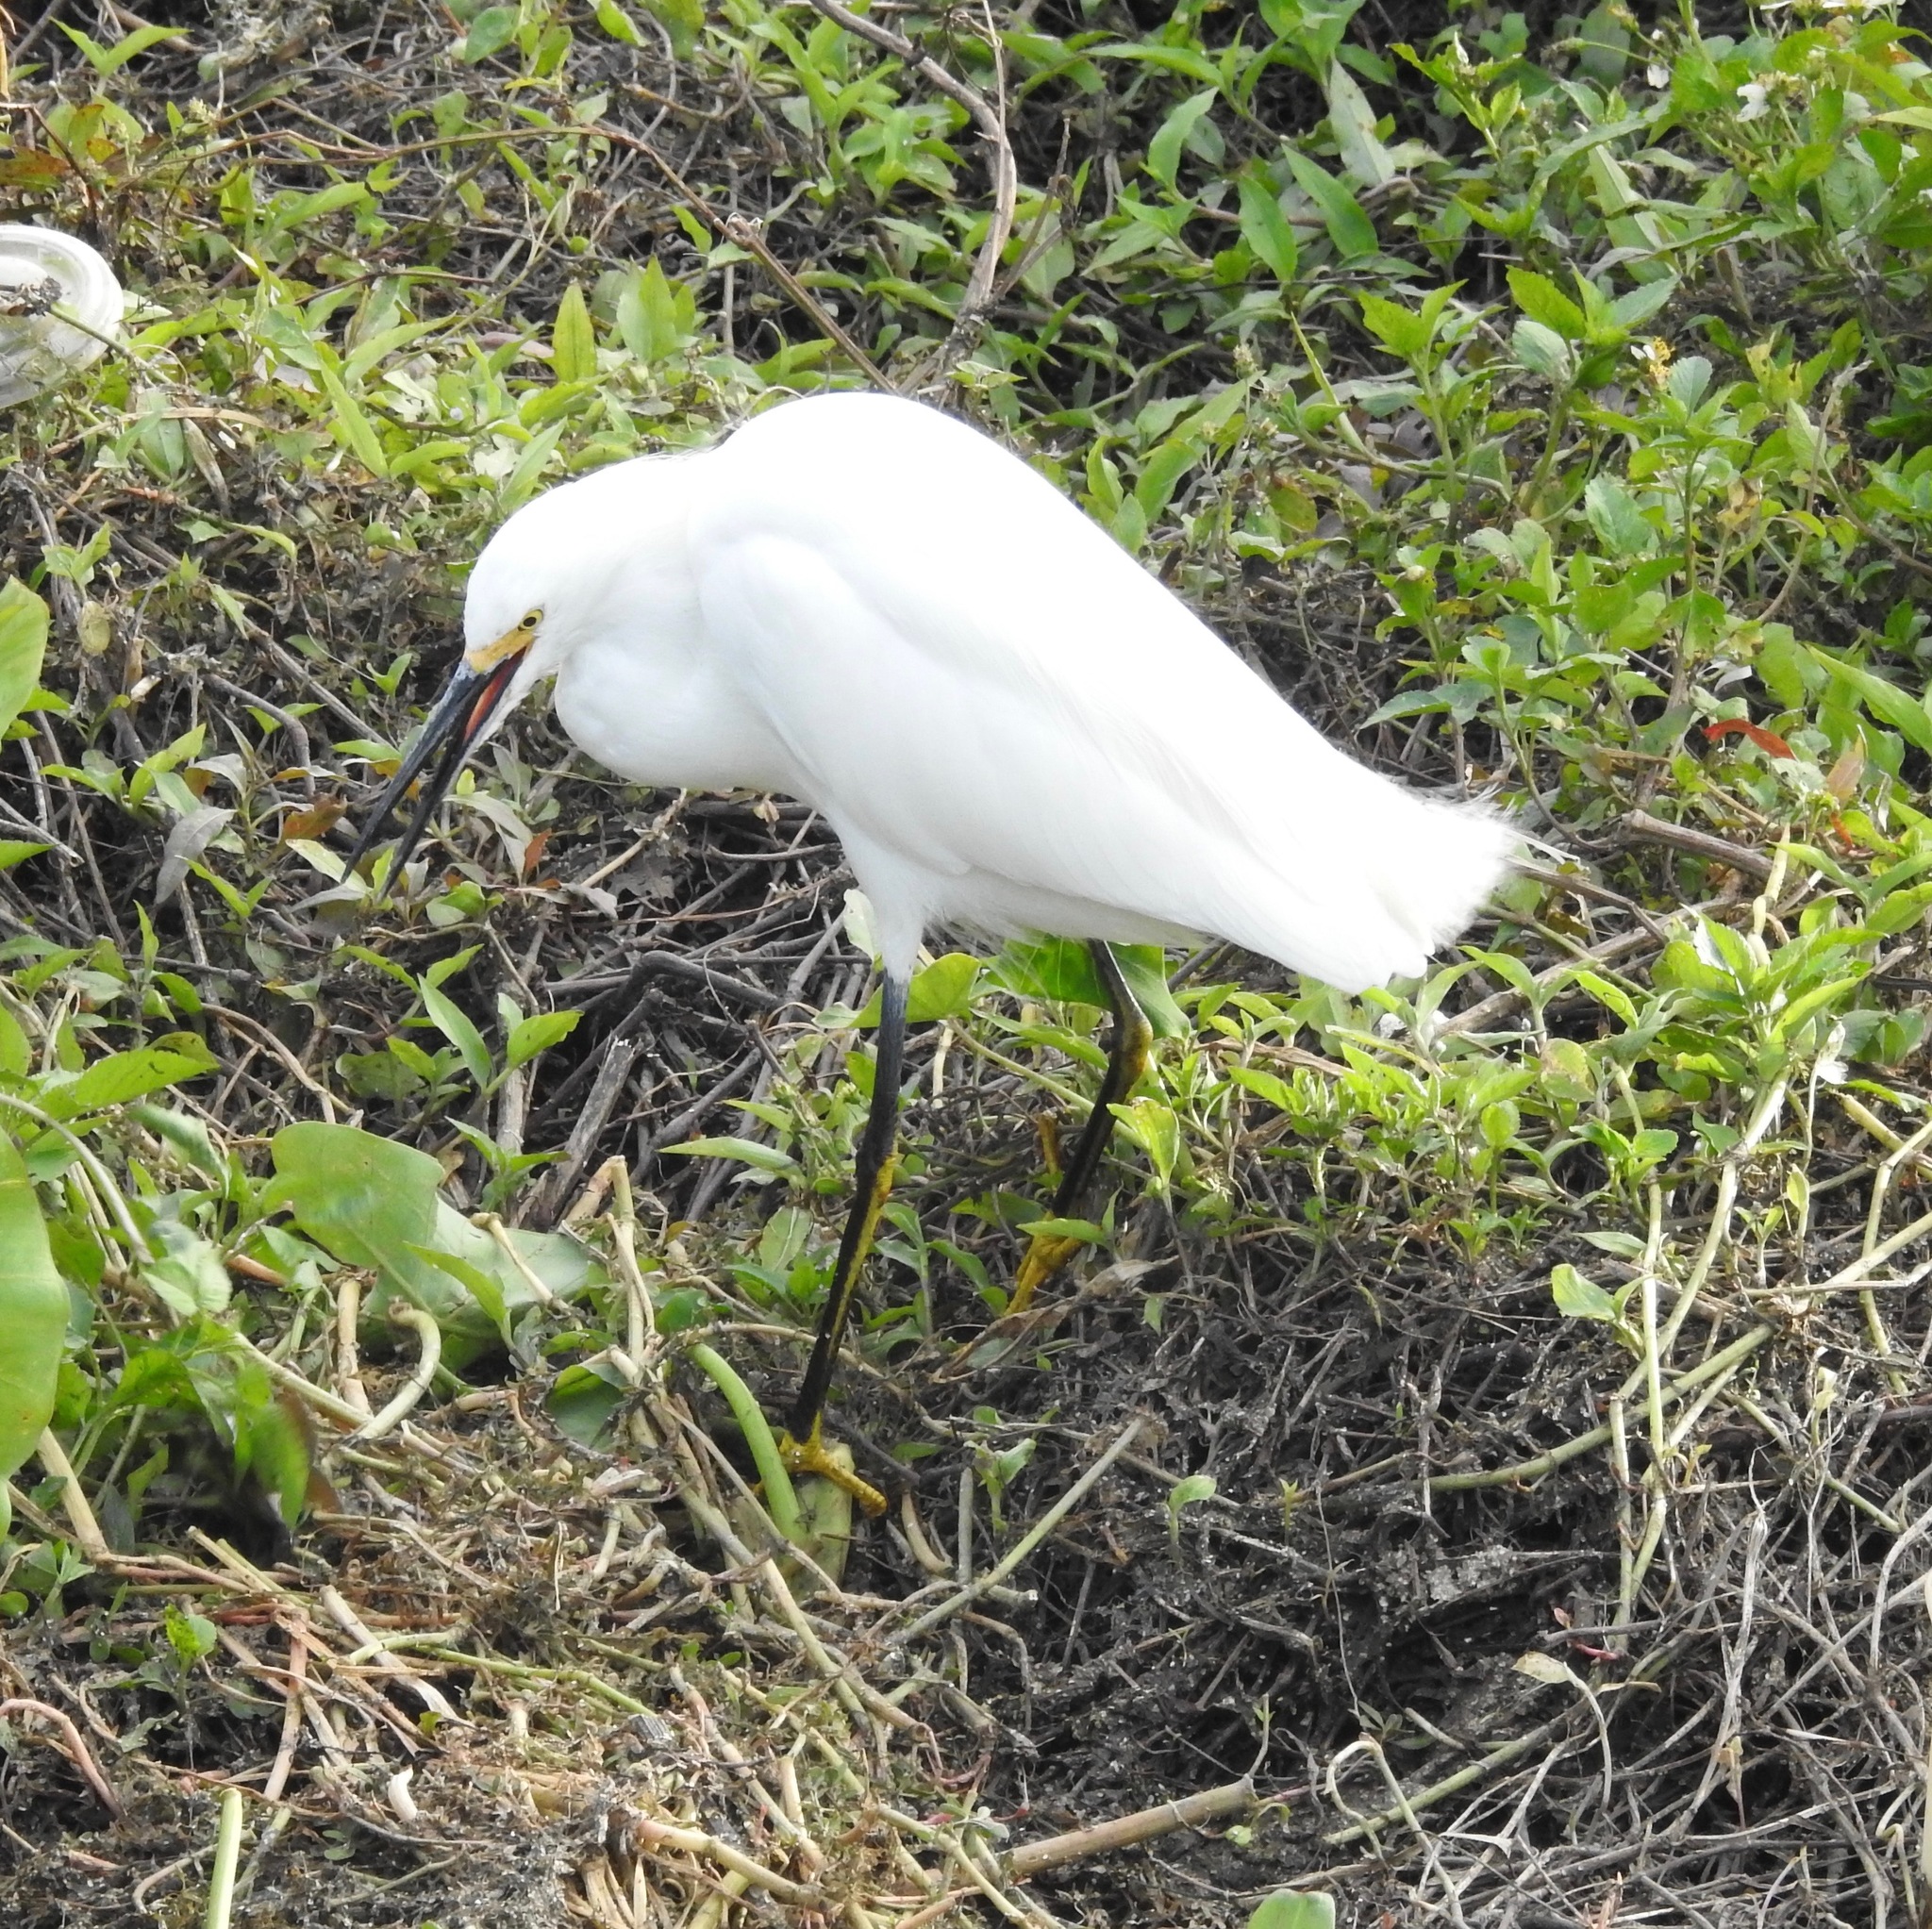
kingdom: Animalia
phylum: Chordata
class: Aves
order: Pelecaniformes
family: Ardeidae
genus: Egretta
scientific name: Egretta thula
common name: Snowy egret
